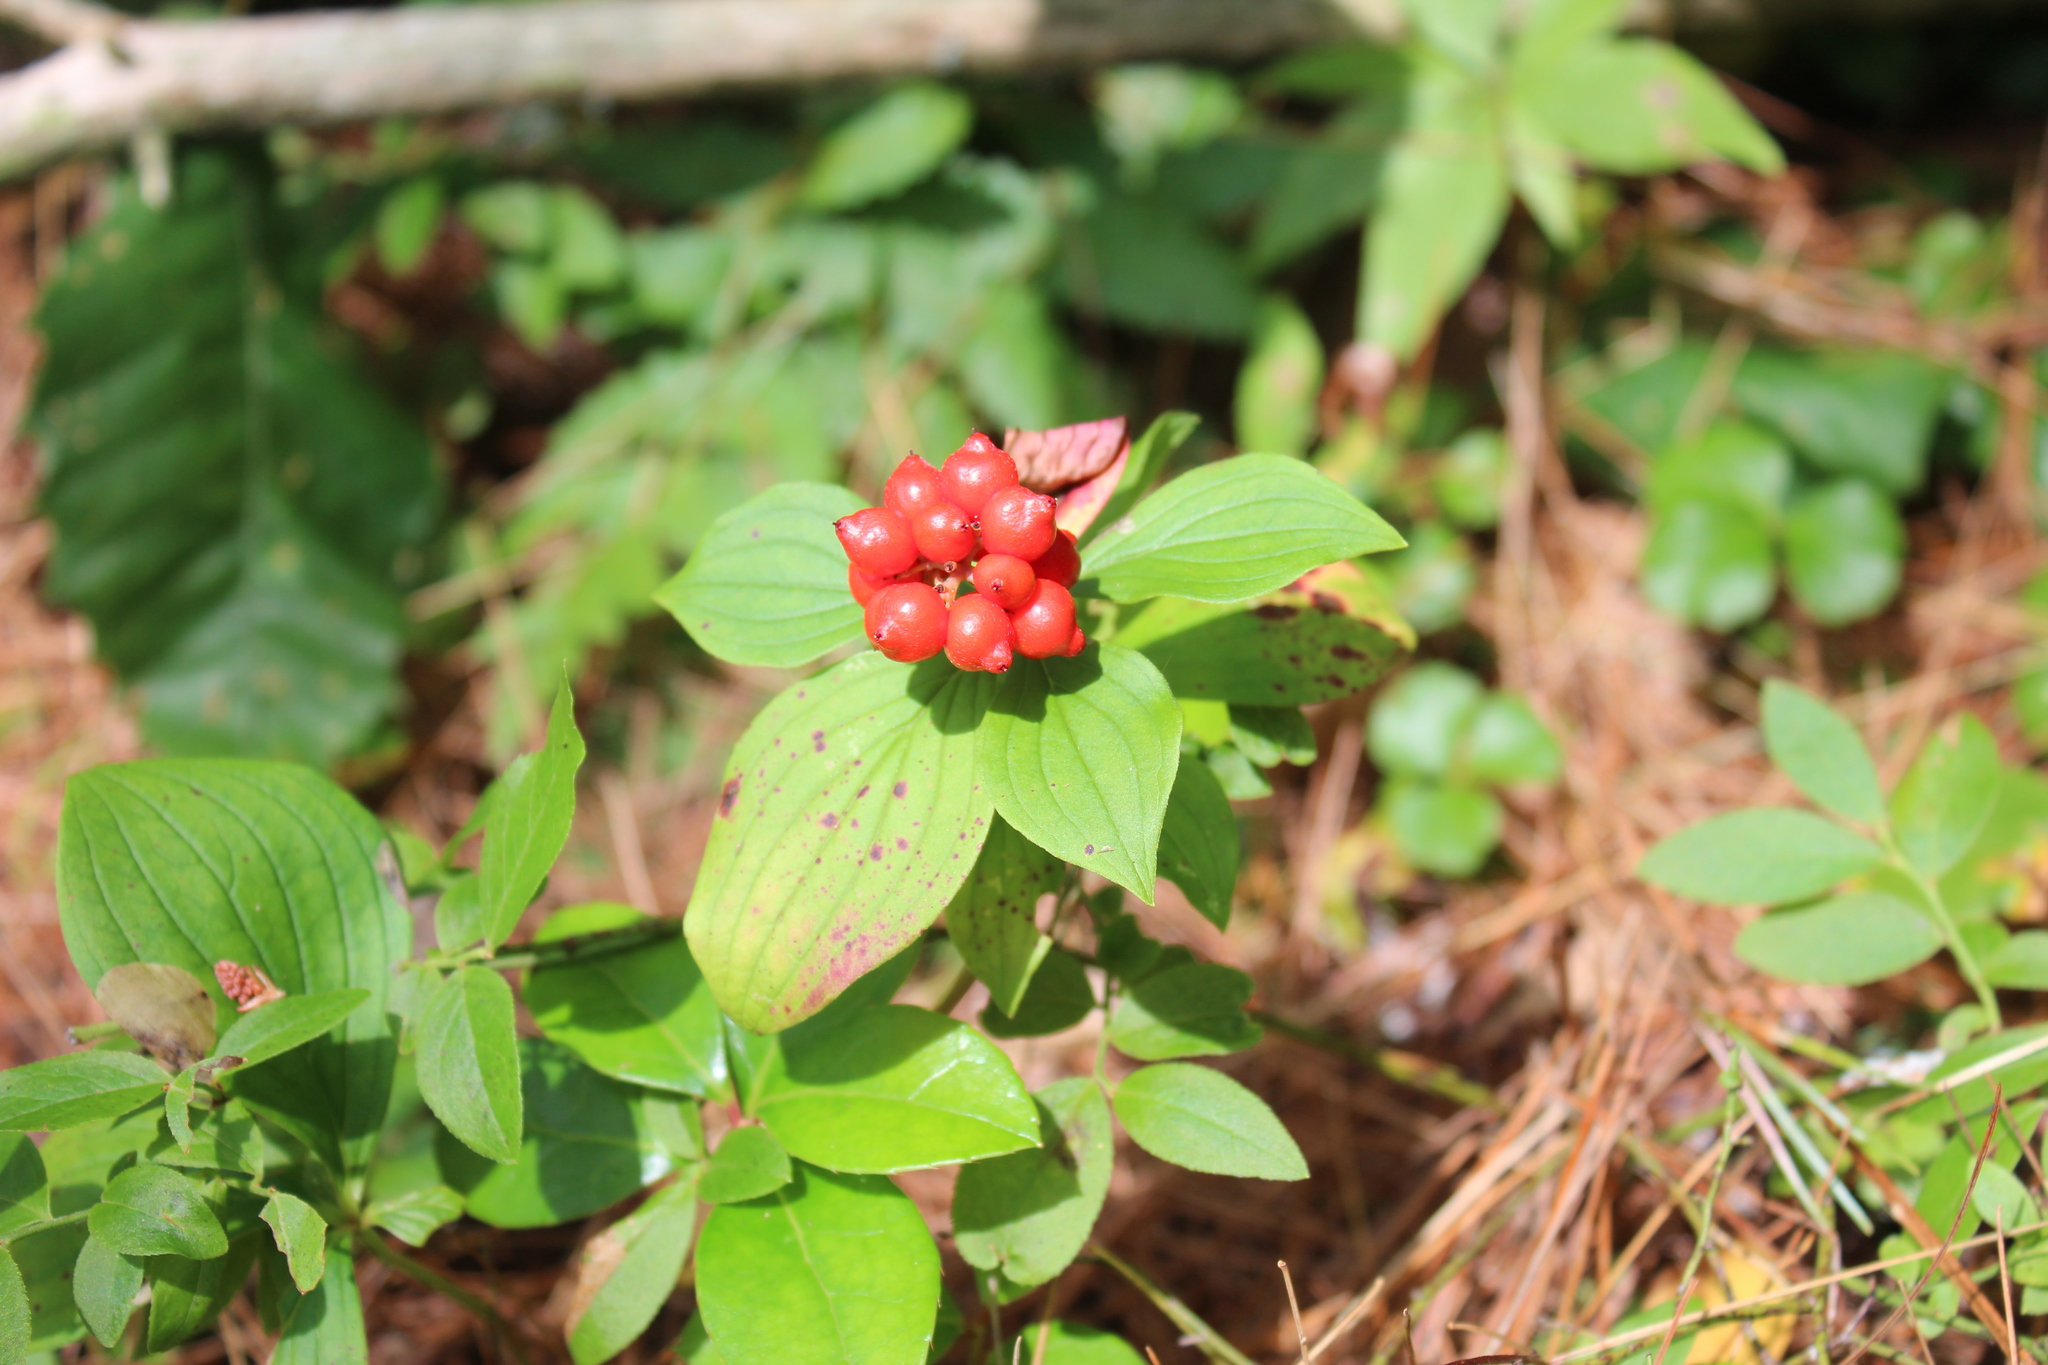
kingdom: Plantae
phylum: Tracheophyta
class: Magnoliopsida
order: Cornales
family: Cornaceae
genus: Cornus
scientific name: Cornus canadensis
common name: Creeping dogwood
